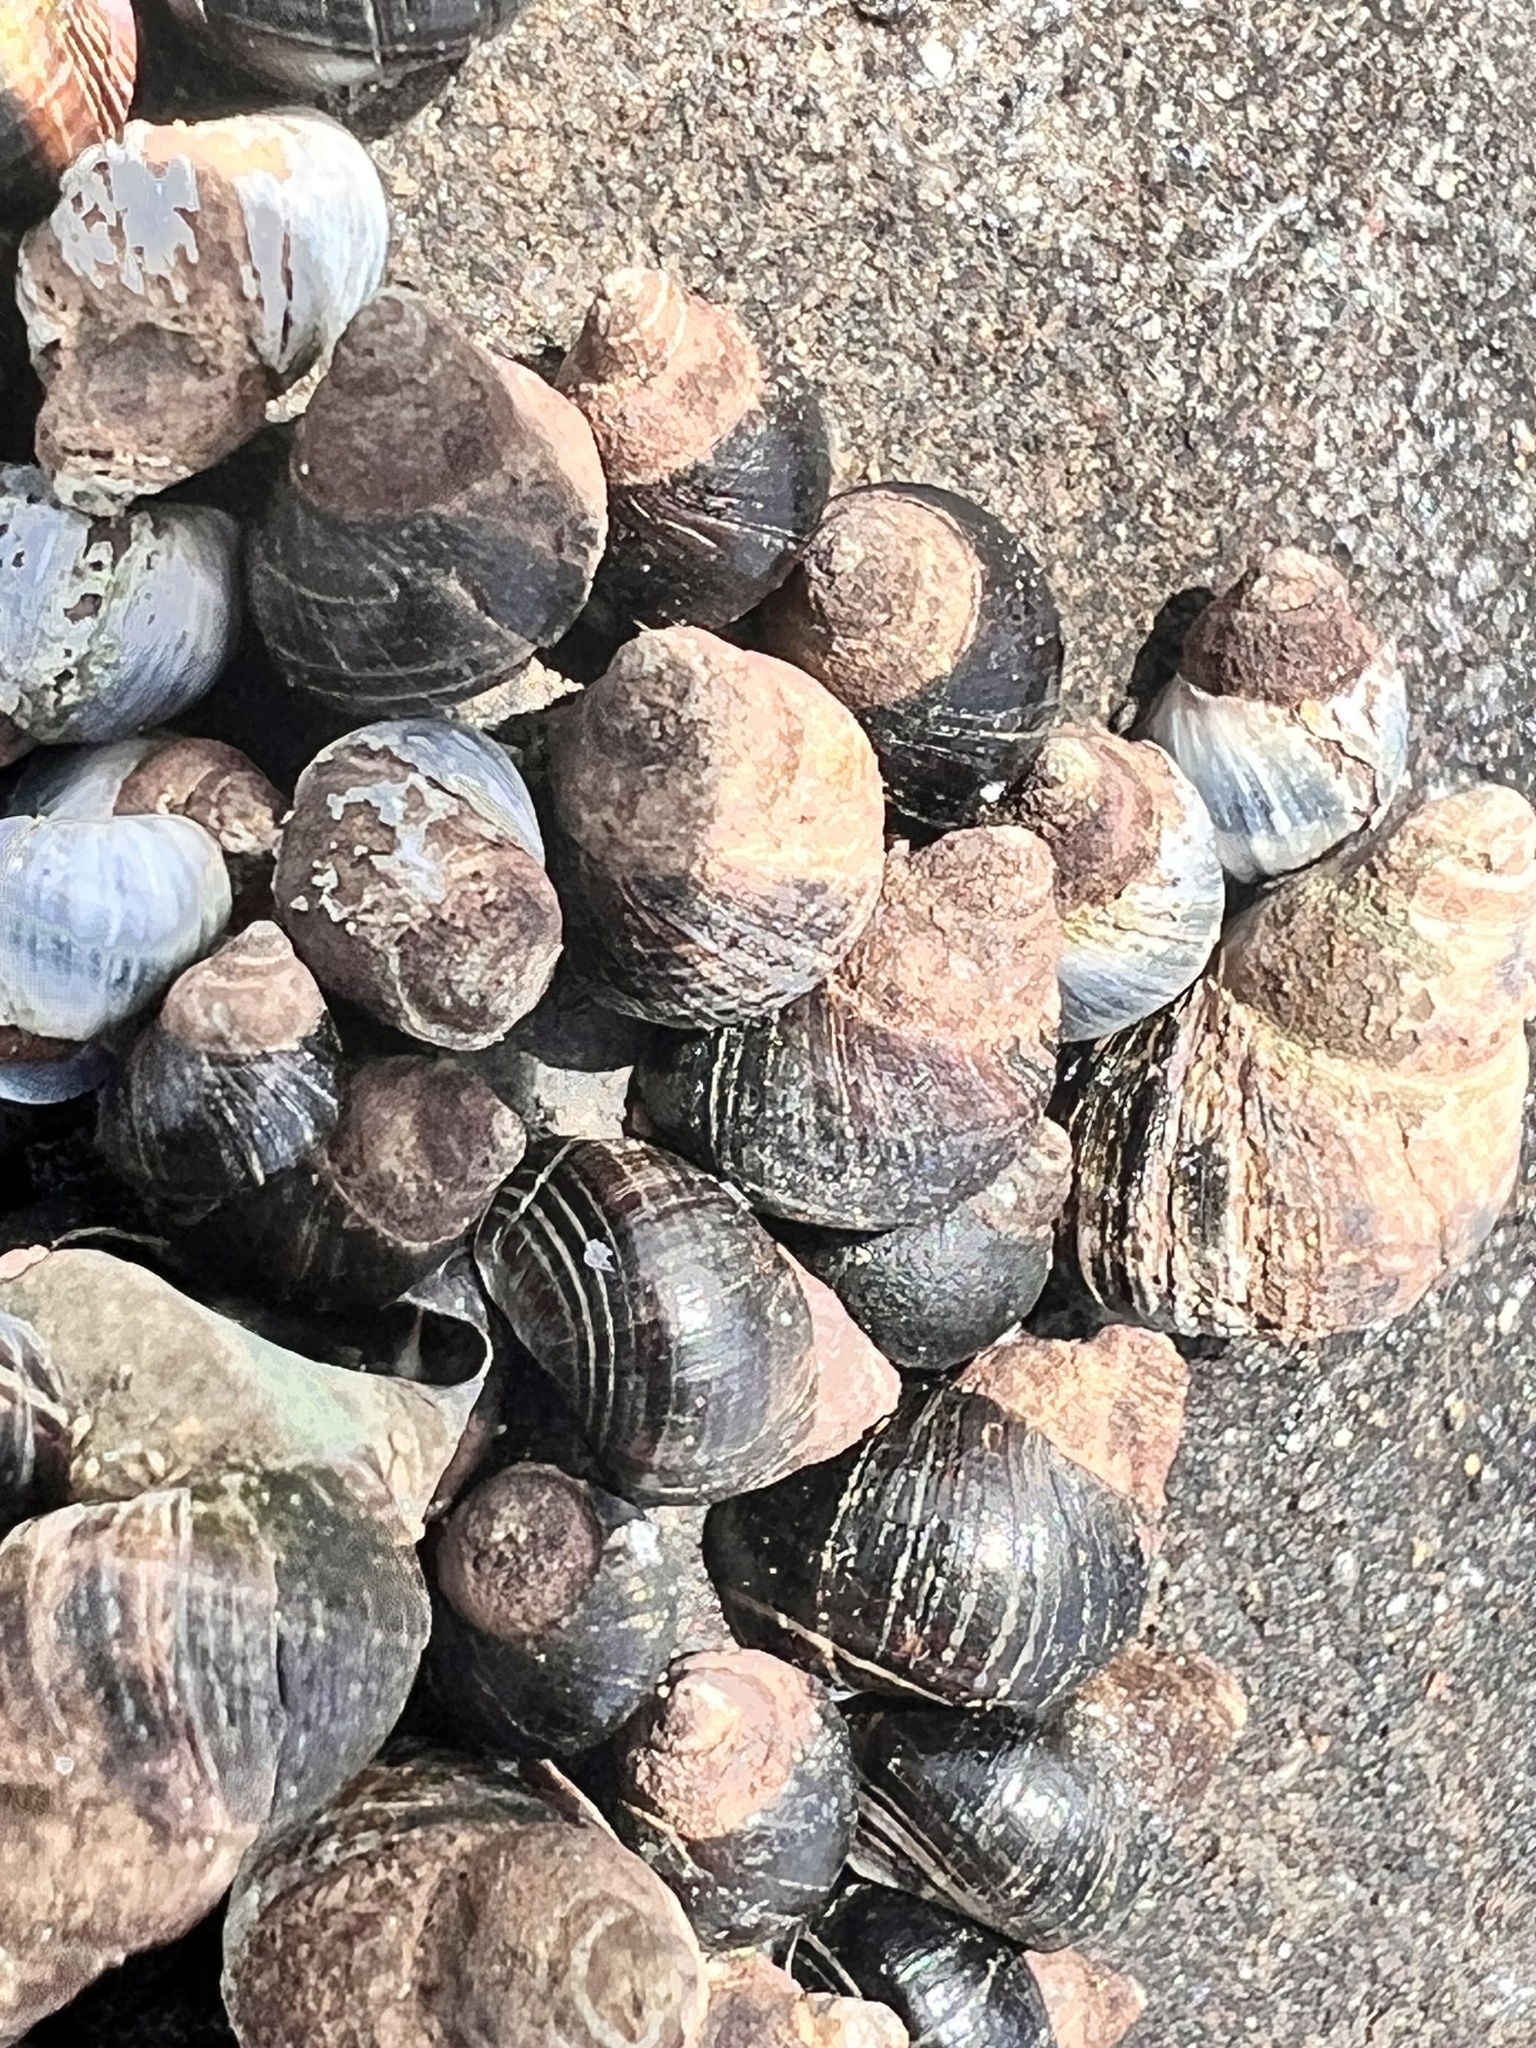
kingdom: Animalia
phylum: Mollusca
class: Gastropoda
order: Littorinimorpha
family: Littorinidae
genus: Austrolittorina
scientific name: Austrolittorina cincta
